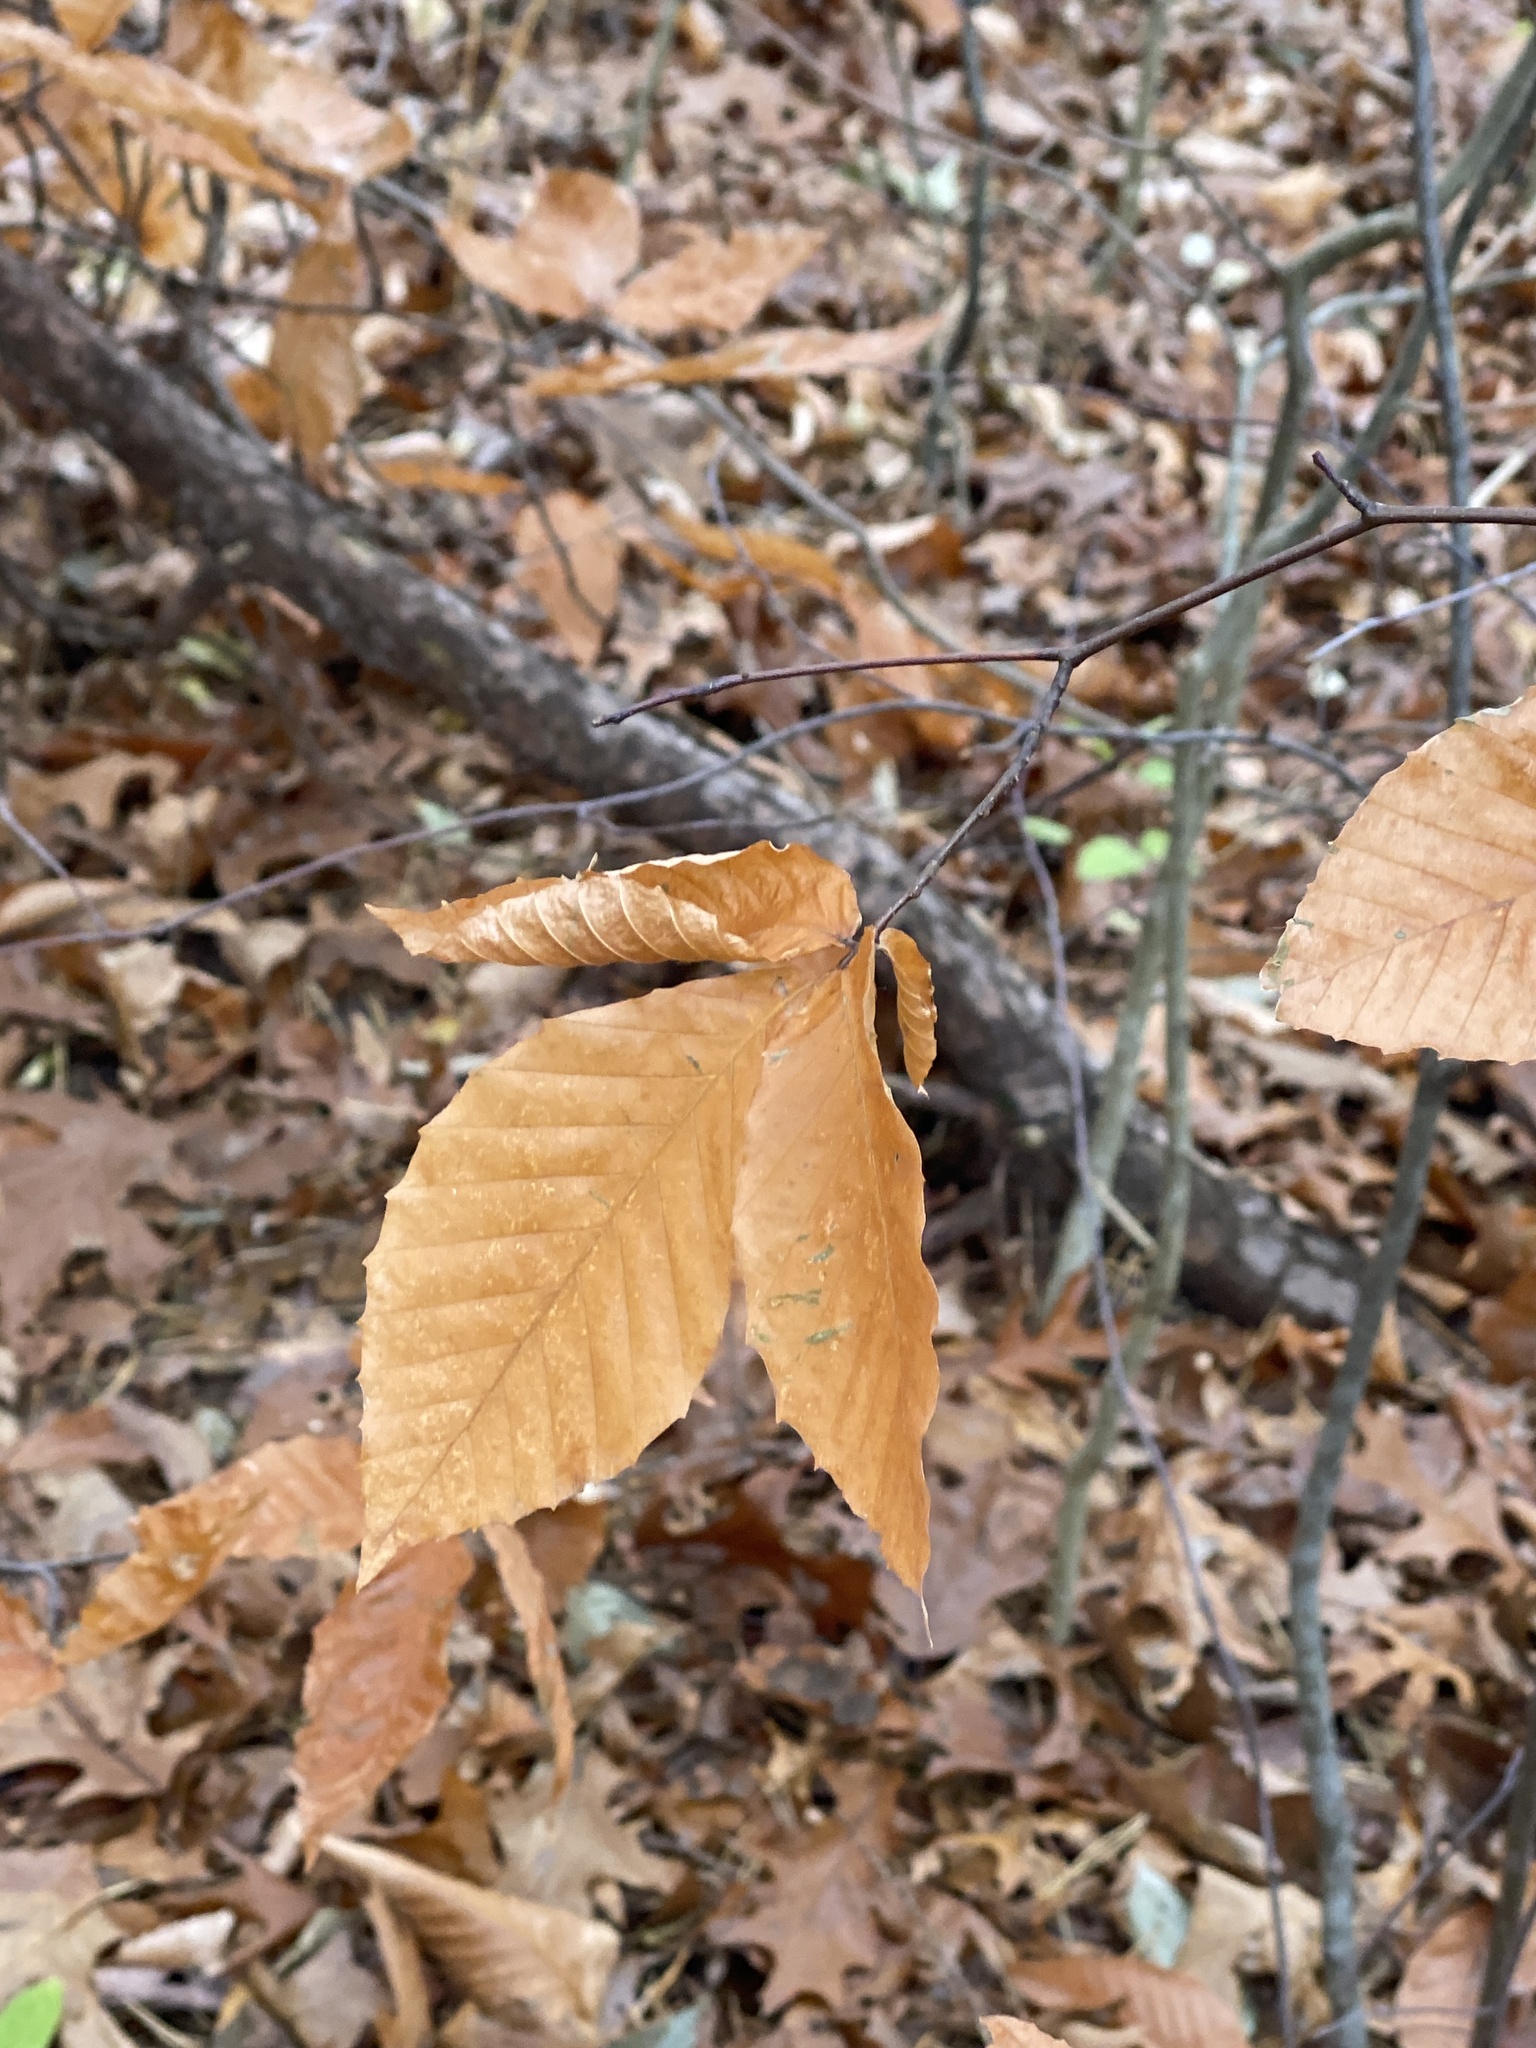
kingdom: Plantae
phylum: Tracheophyta
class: Magnoliopsida
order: Fagales
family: Fagaceae
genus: Fagus
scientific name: Fagus grandifolia
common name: American beech
